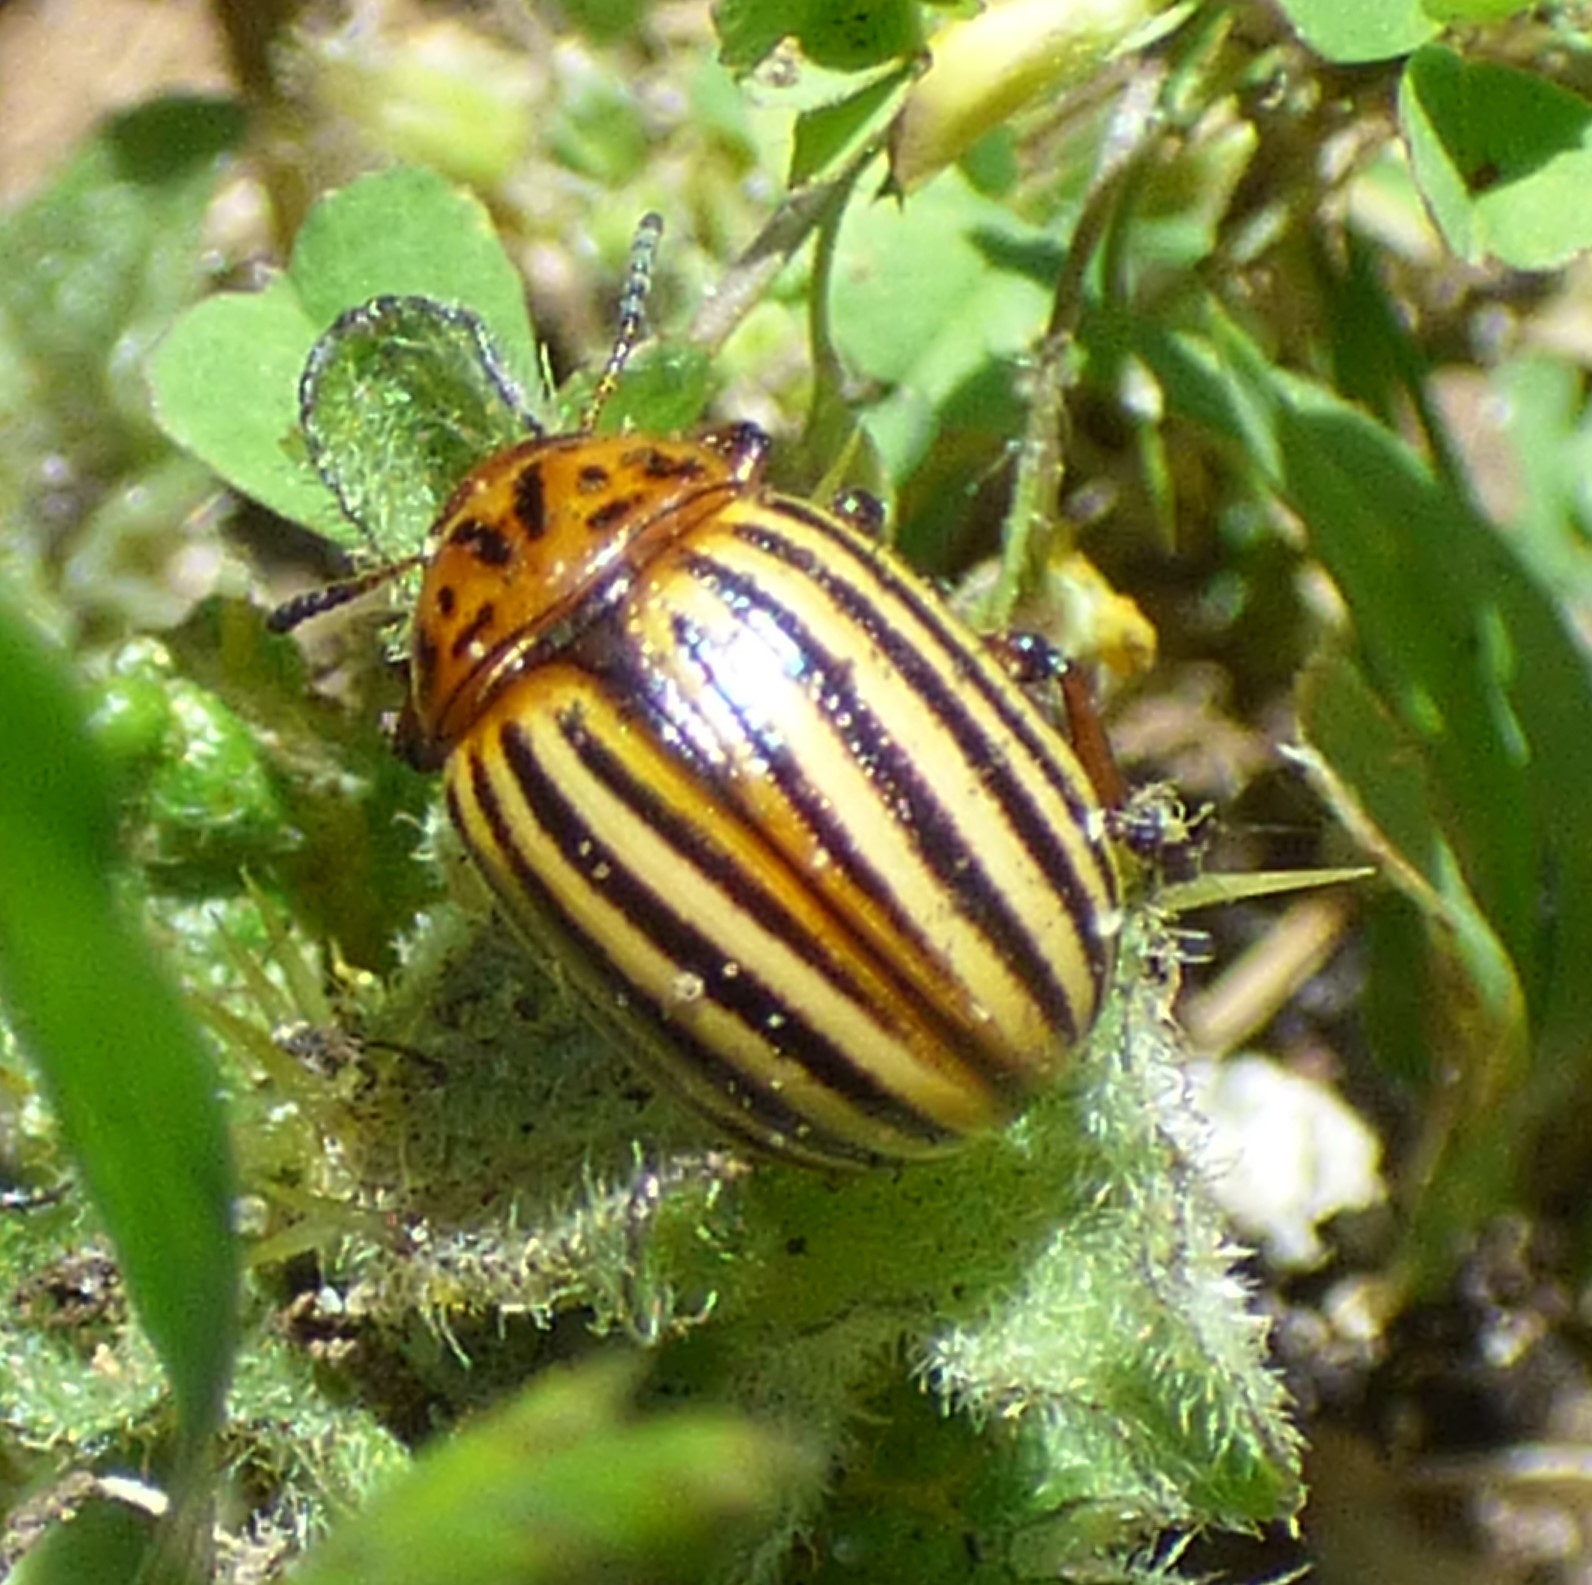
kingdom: Animalia
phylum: Arthropoda
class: Insecta
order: Coleoptera
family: Chrysomelidae
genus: Leptinotarsa
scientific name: Leptinotarsa decemlineata
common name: Colorado potato beetle
